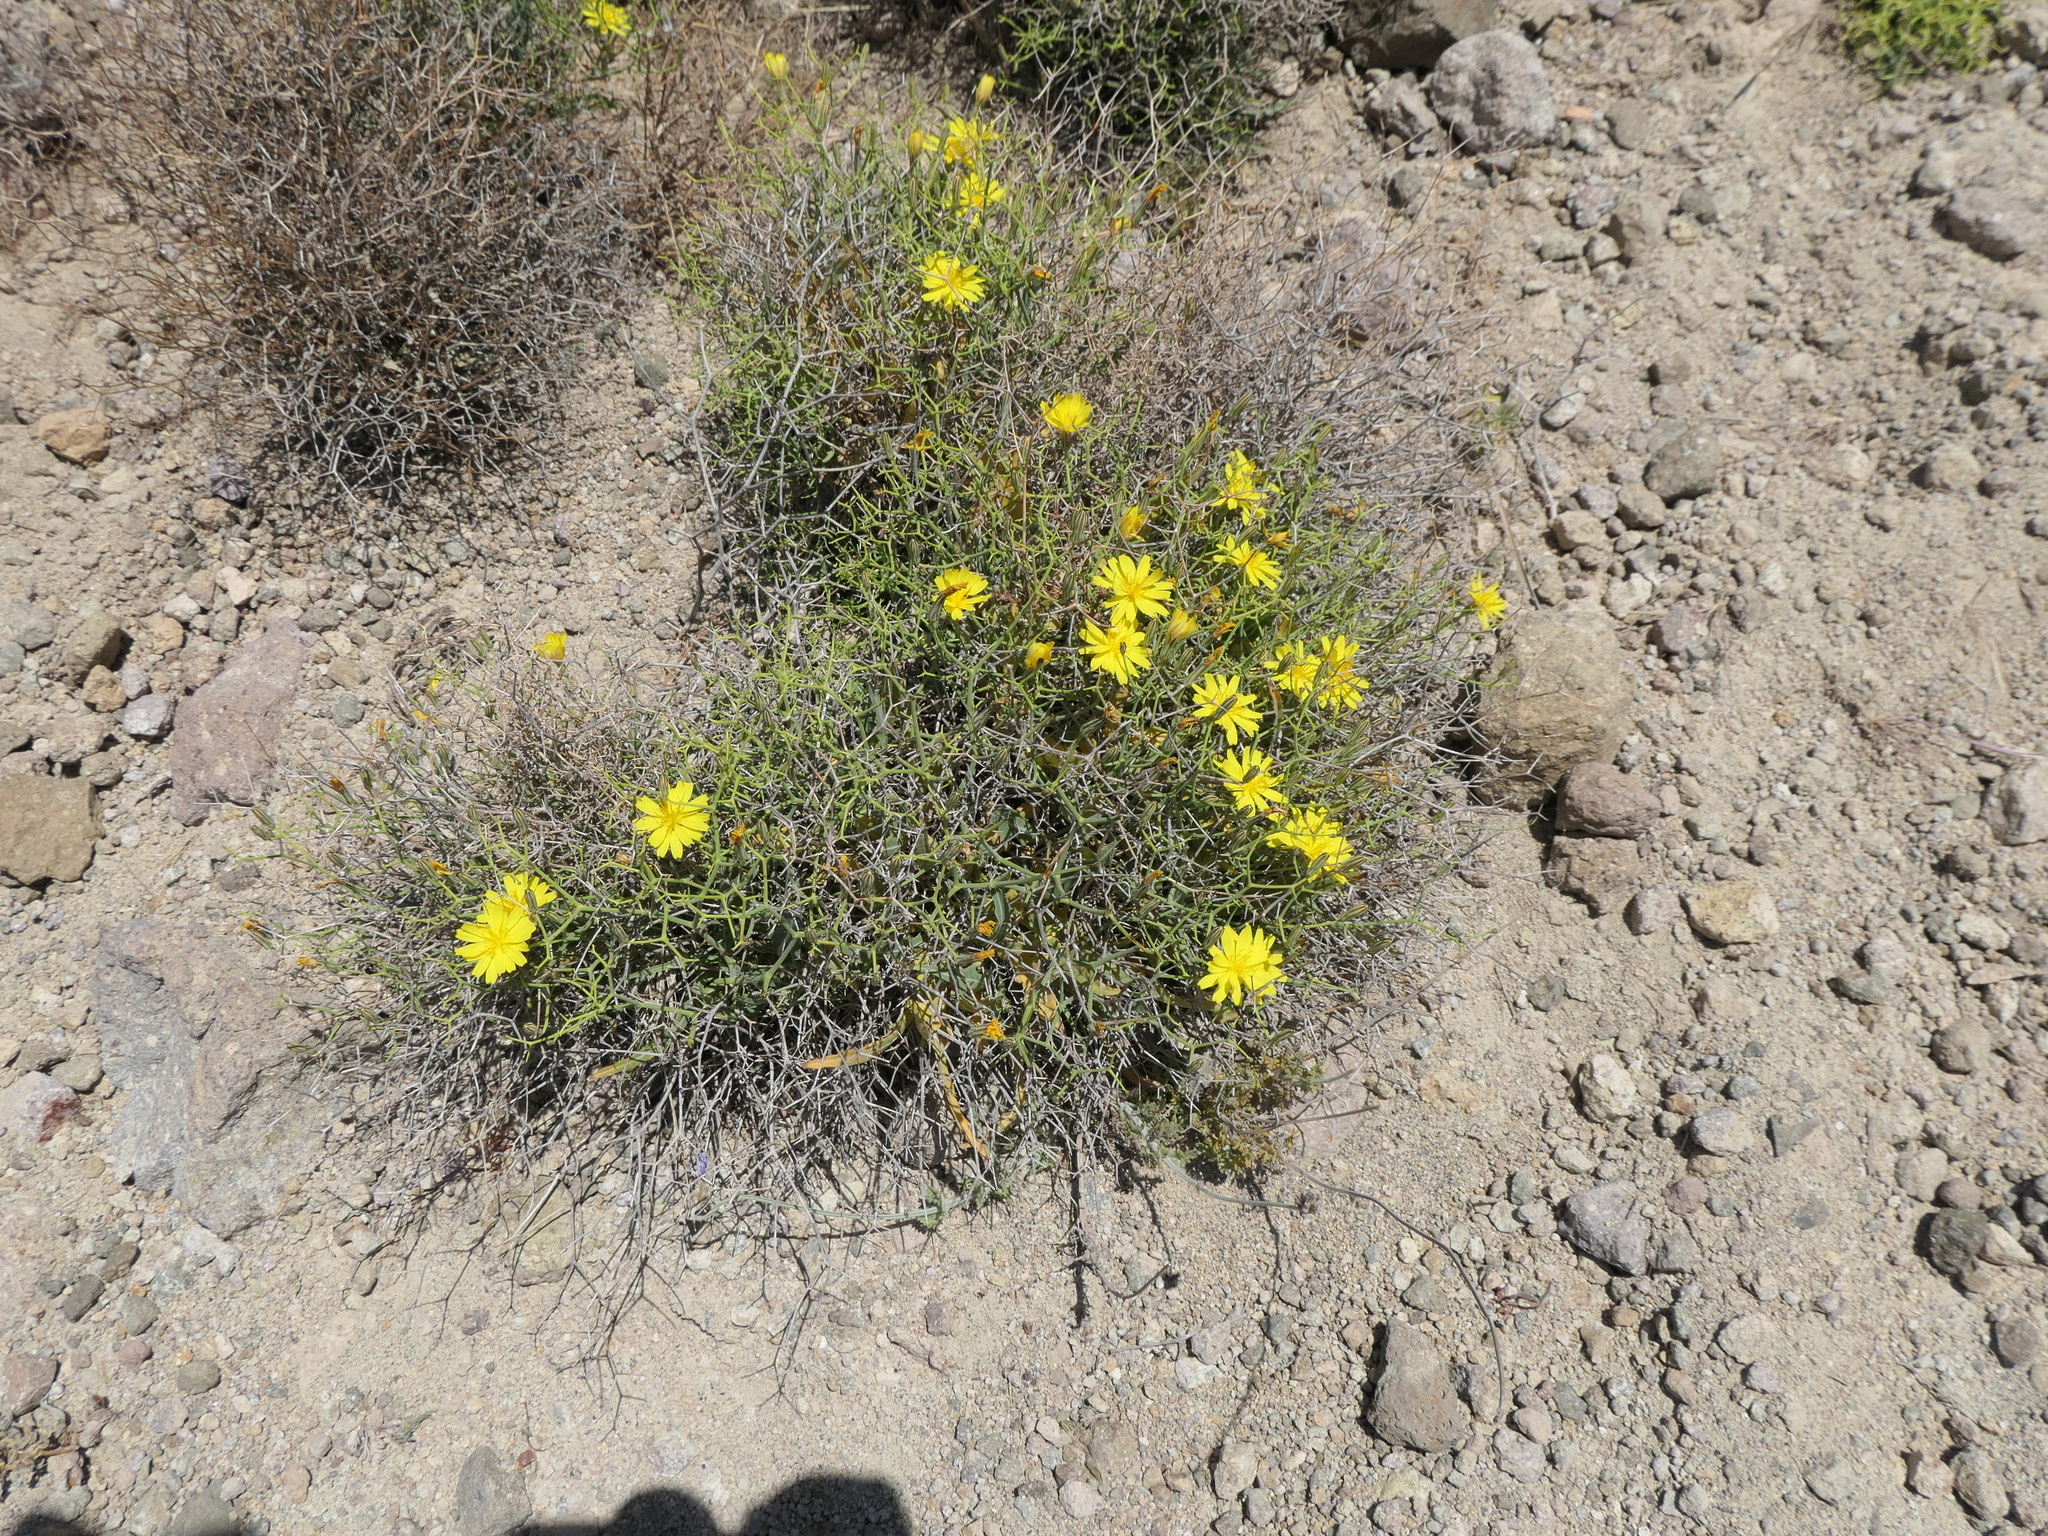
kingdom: Plantae
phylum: Tracheophyta
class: Magnoliopsida
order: Asterales
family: Asteraceae
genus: Launaea
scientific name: Launaea arborescens
